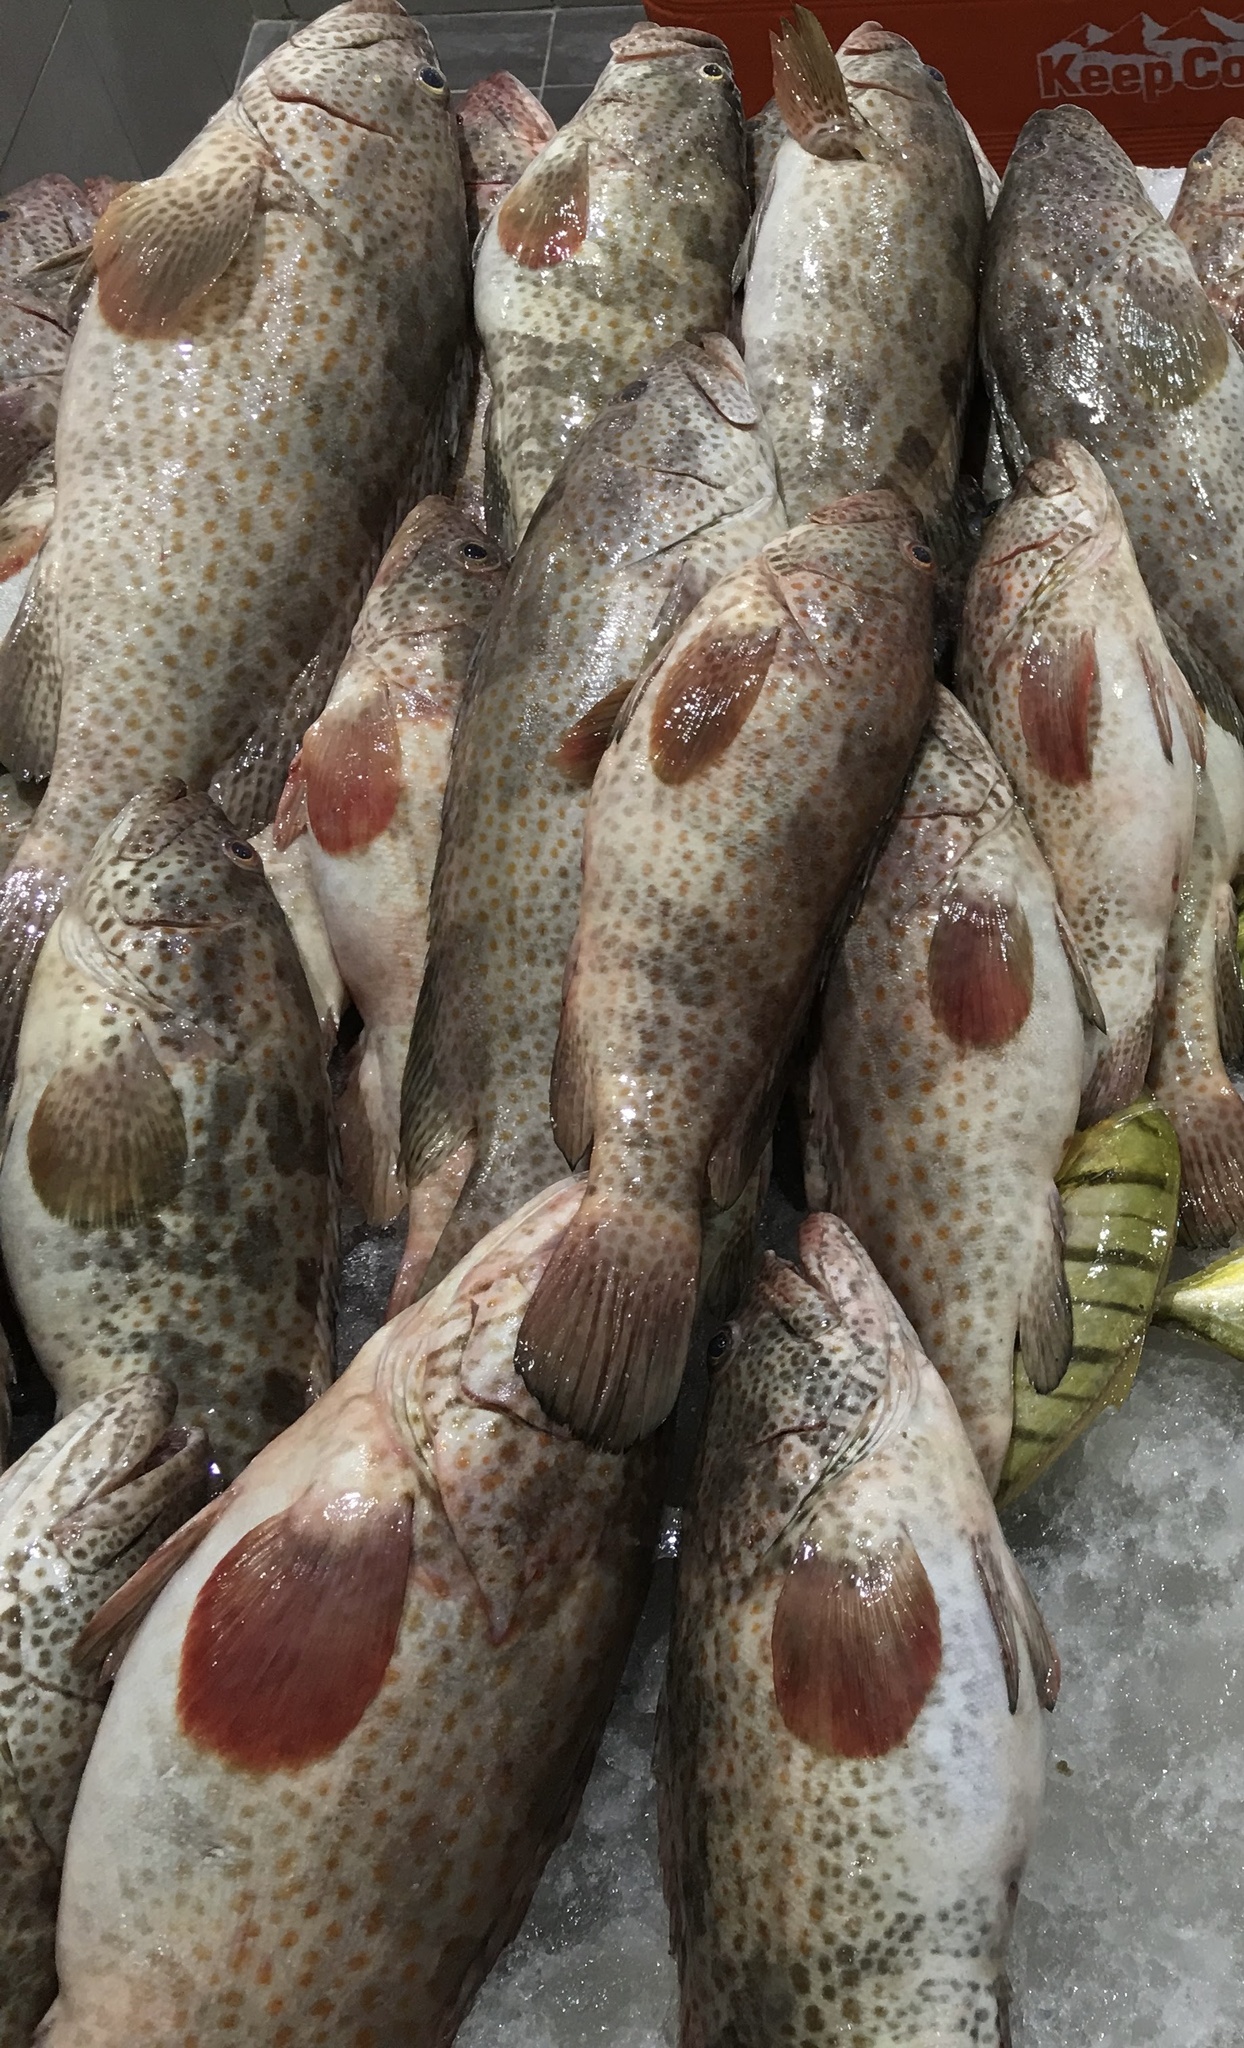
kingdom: Animalia
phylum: Chordata
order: Perciformes
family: Serranidae
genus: Epinephelus
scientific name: Epinephelus coioides
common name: Orange-spotted grouper
